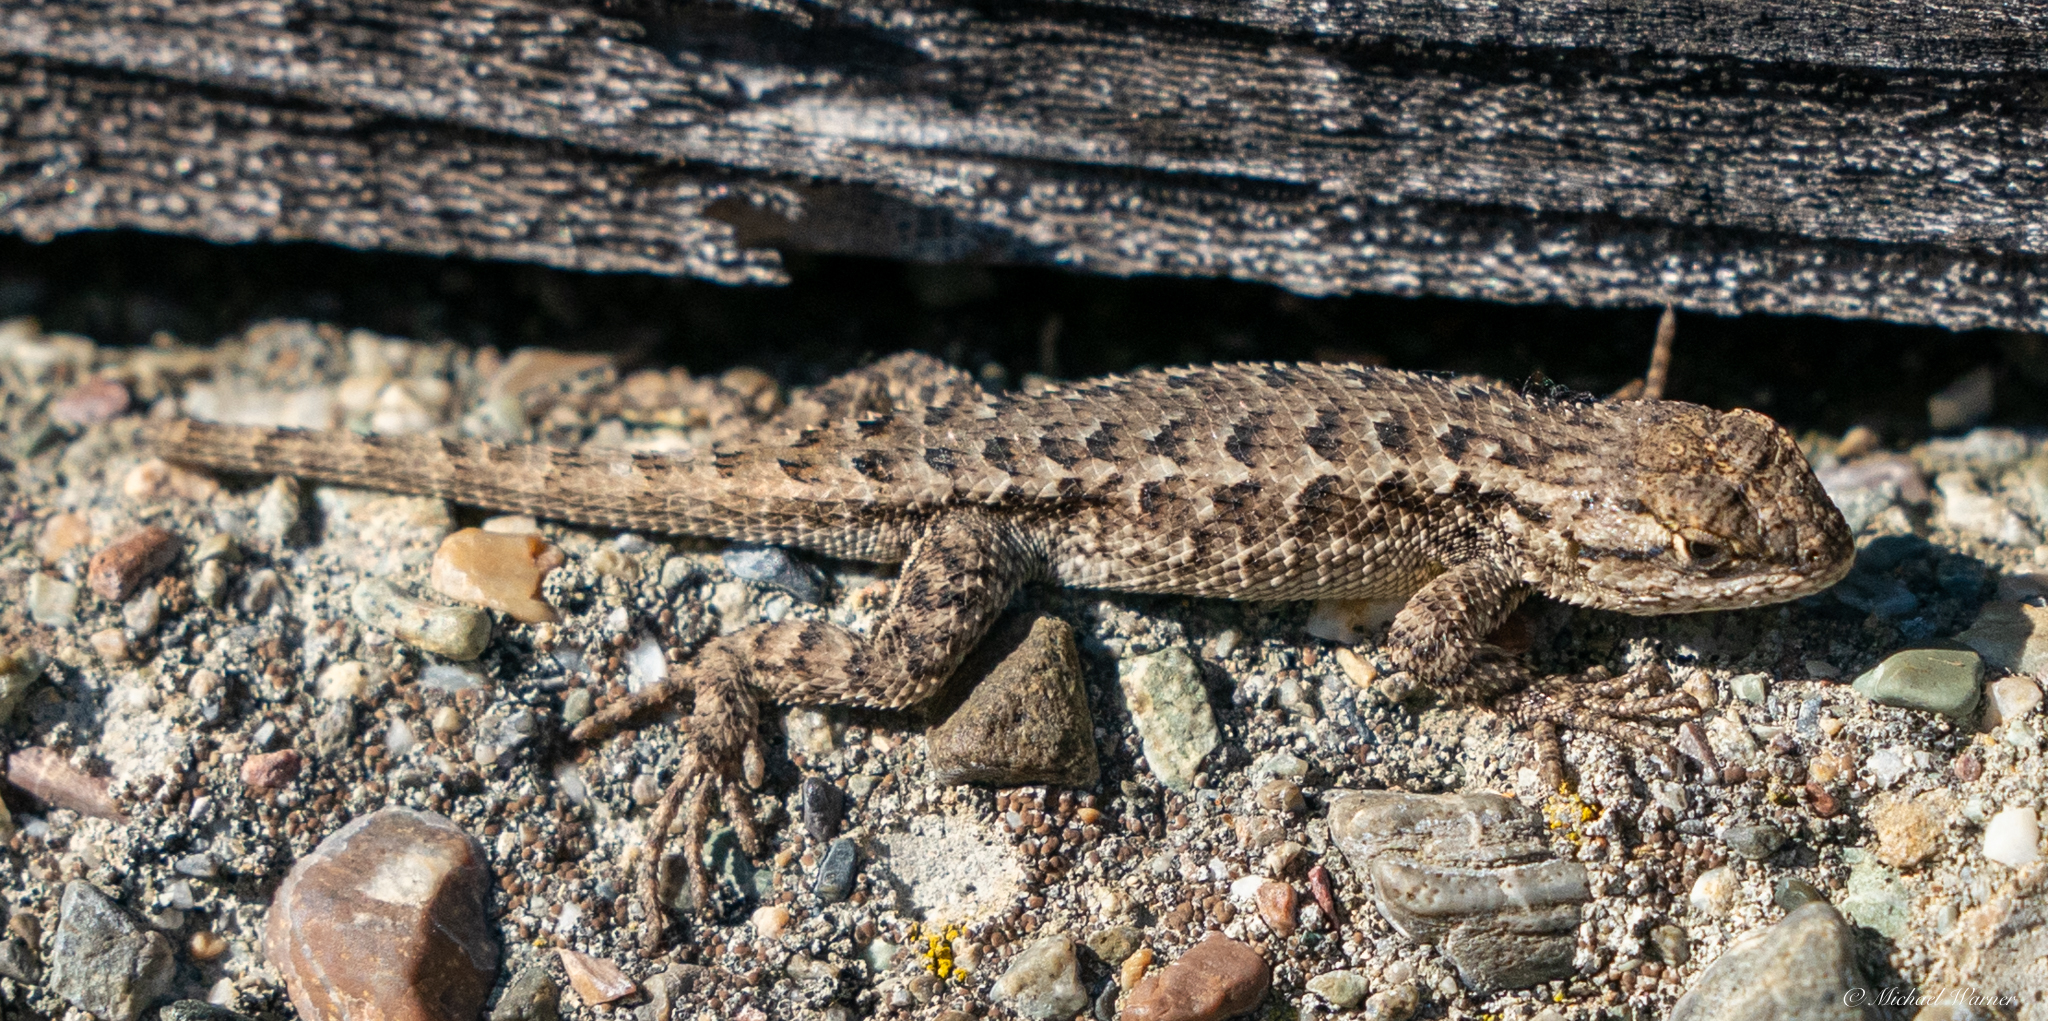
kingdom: Animalia
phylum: Chordata
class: Squamata
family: Phrynosomatidae
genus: Sceloporus
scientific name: Sceloporus occidentalis
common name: Western fence lizard
